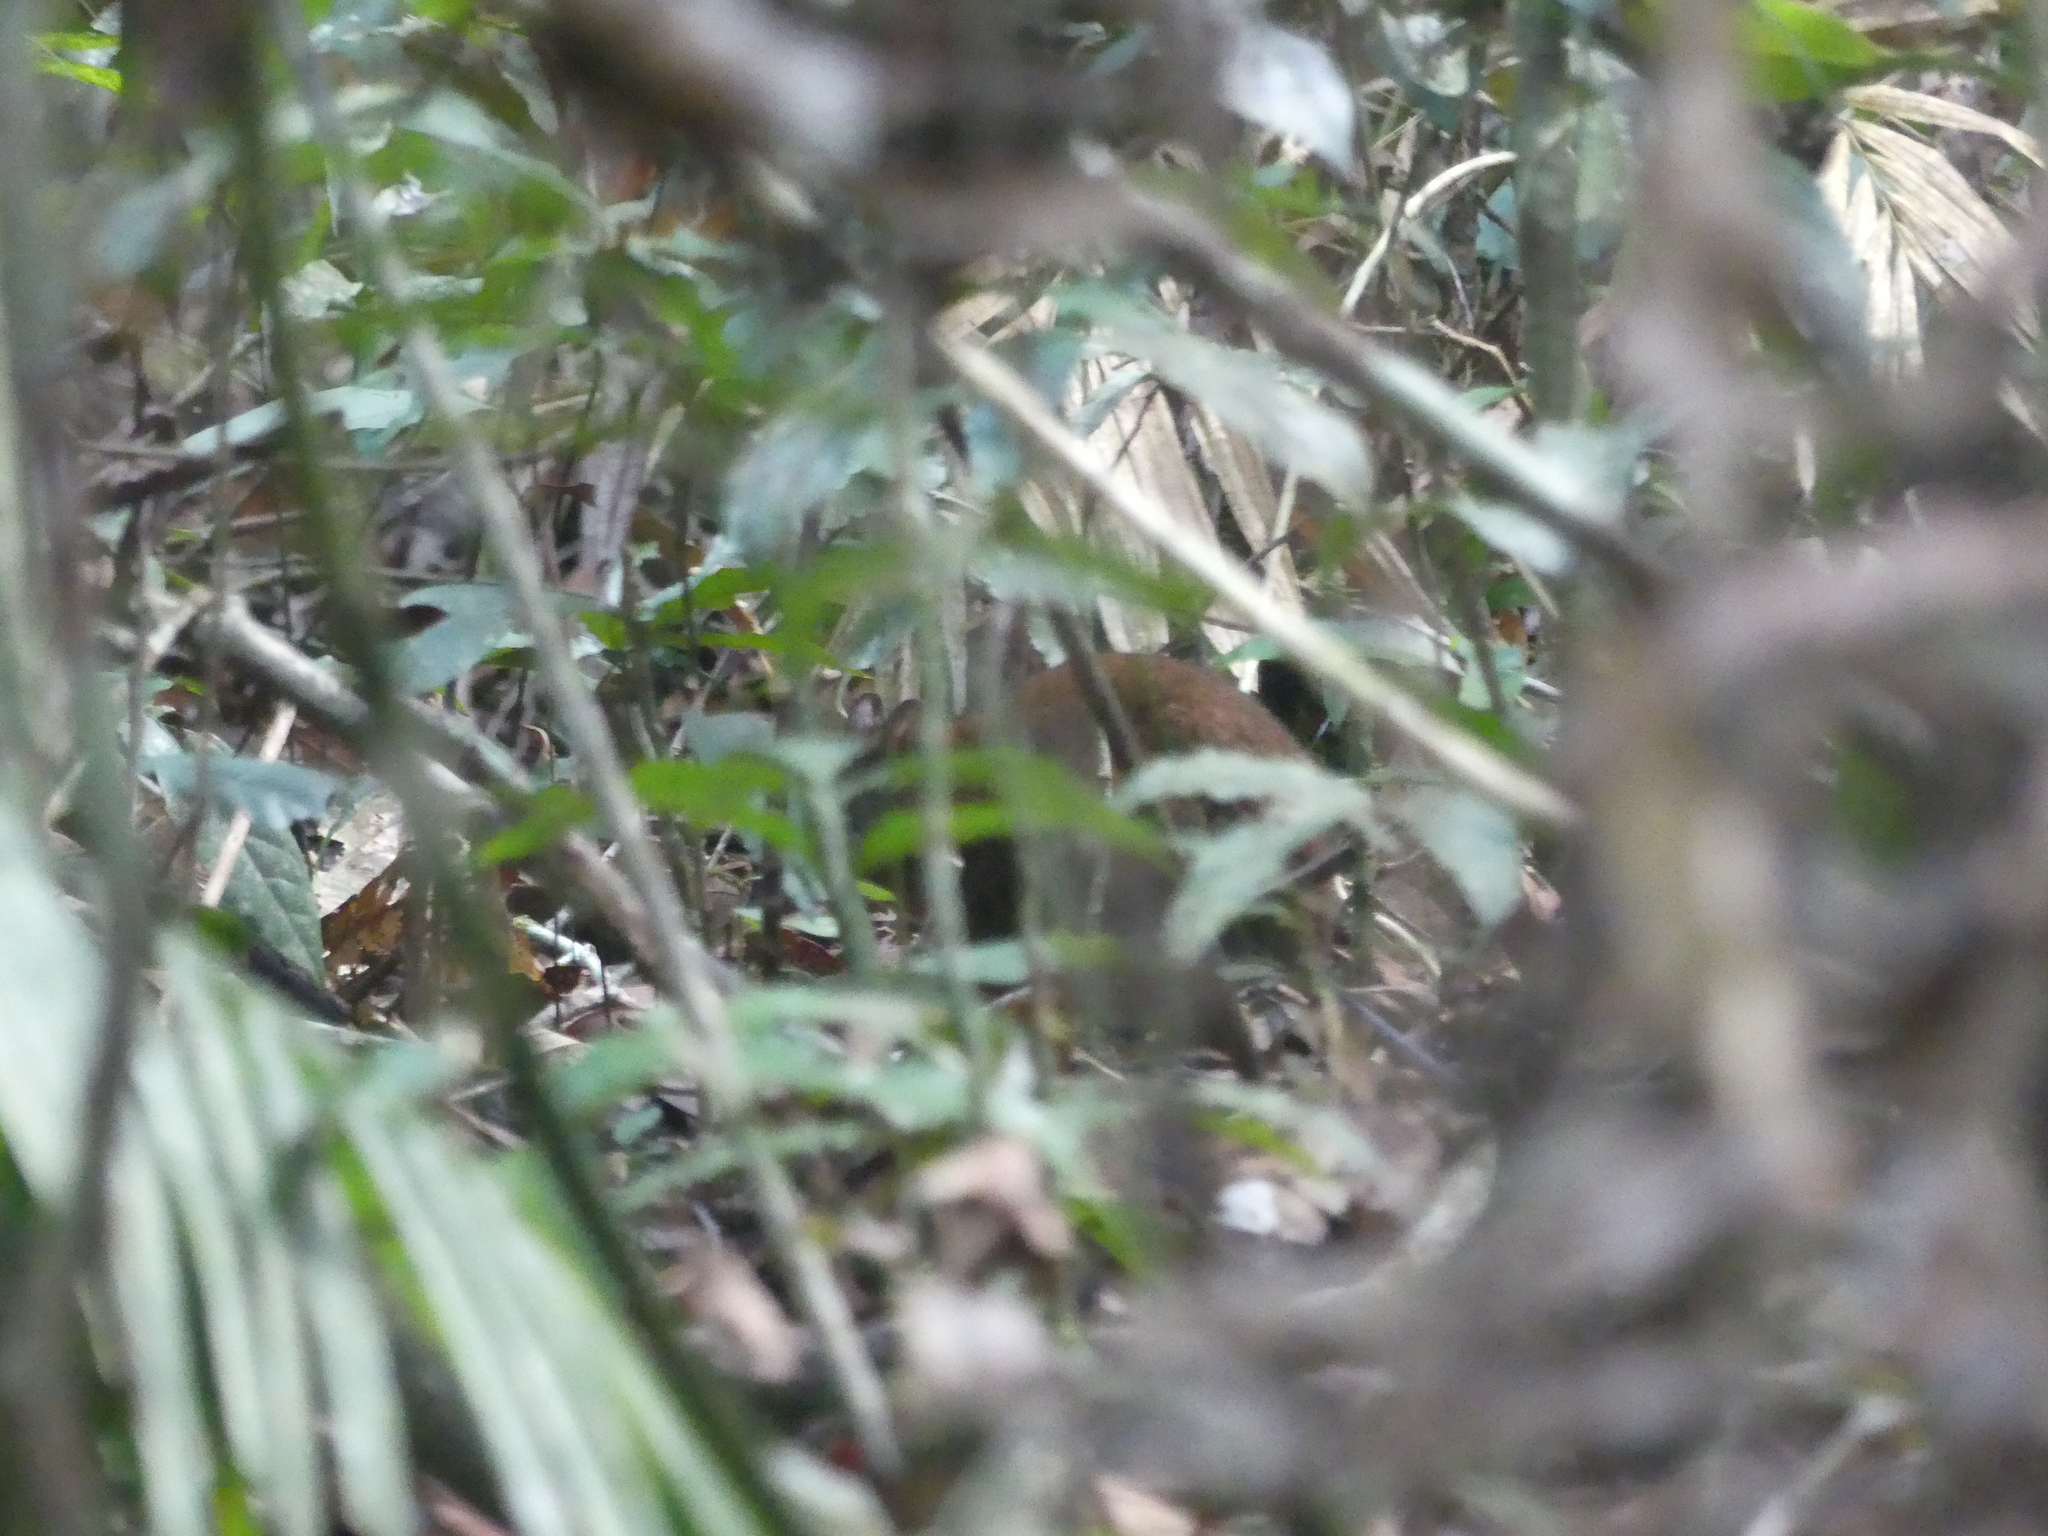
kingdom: Animalia
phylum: Chordata
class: Mammalia
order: Diprotodontia
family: Hypsiprymnodontidae
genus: Hypsiprymnodon
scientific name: Hypsiprymnodon moschatus
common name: Musky rat-kangaroo
